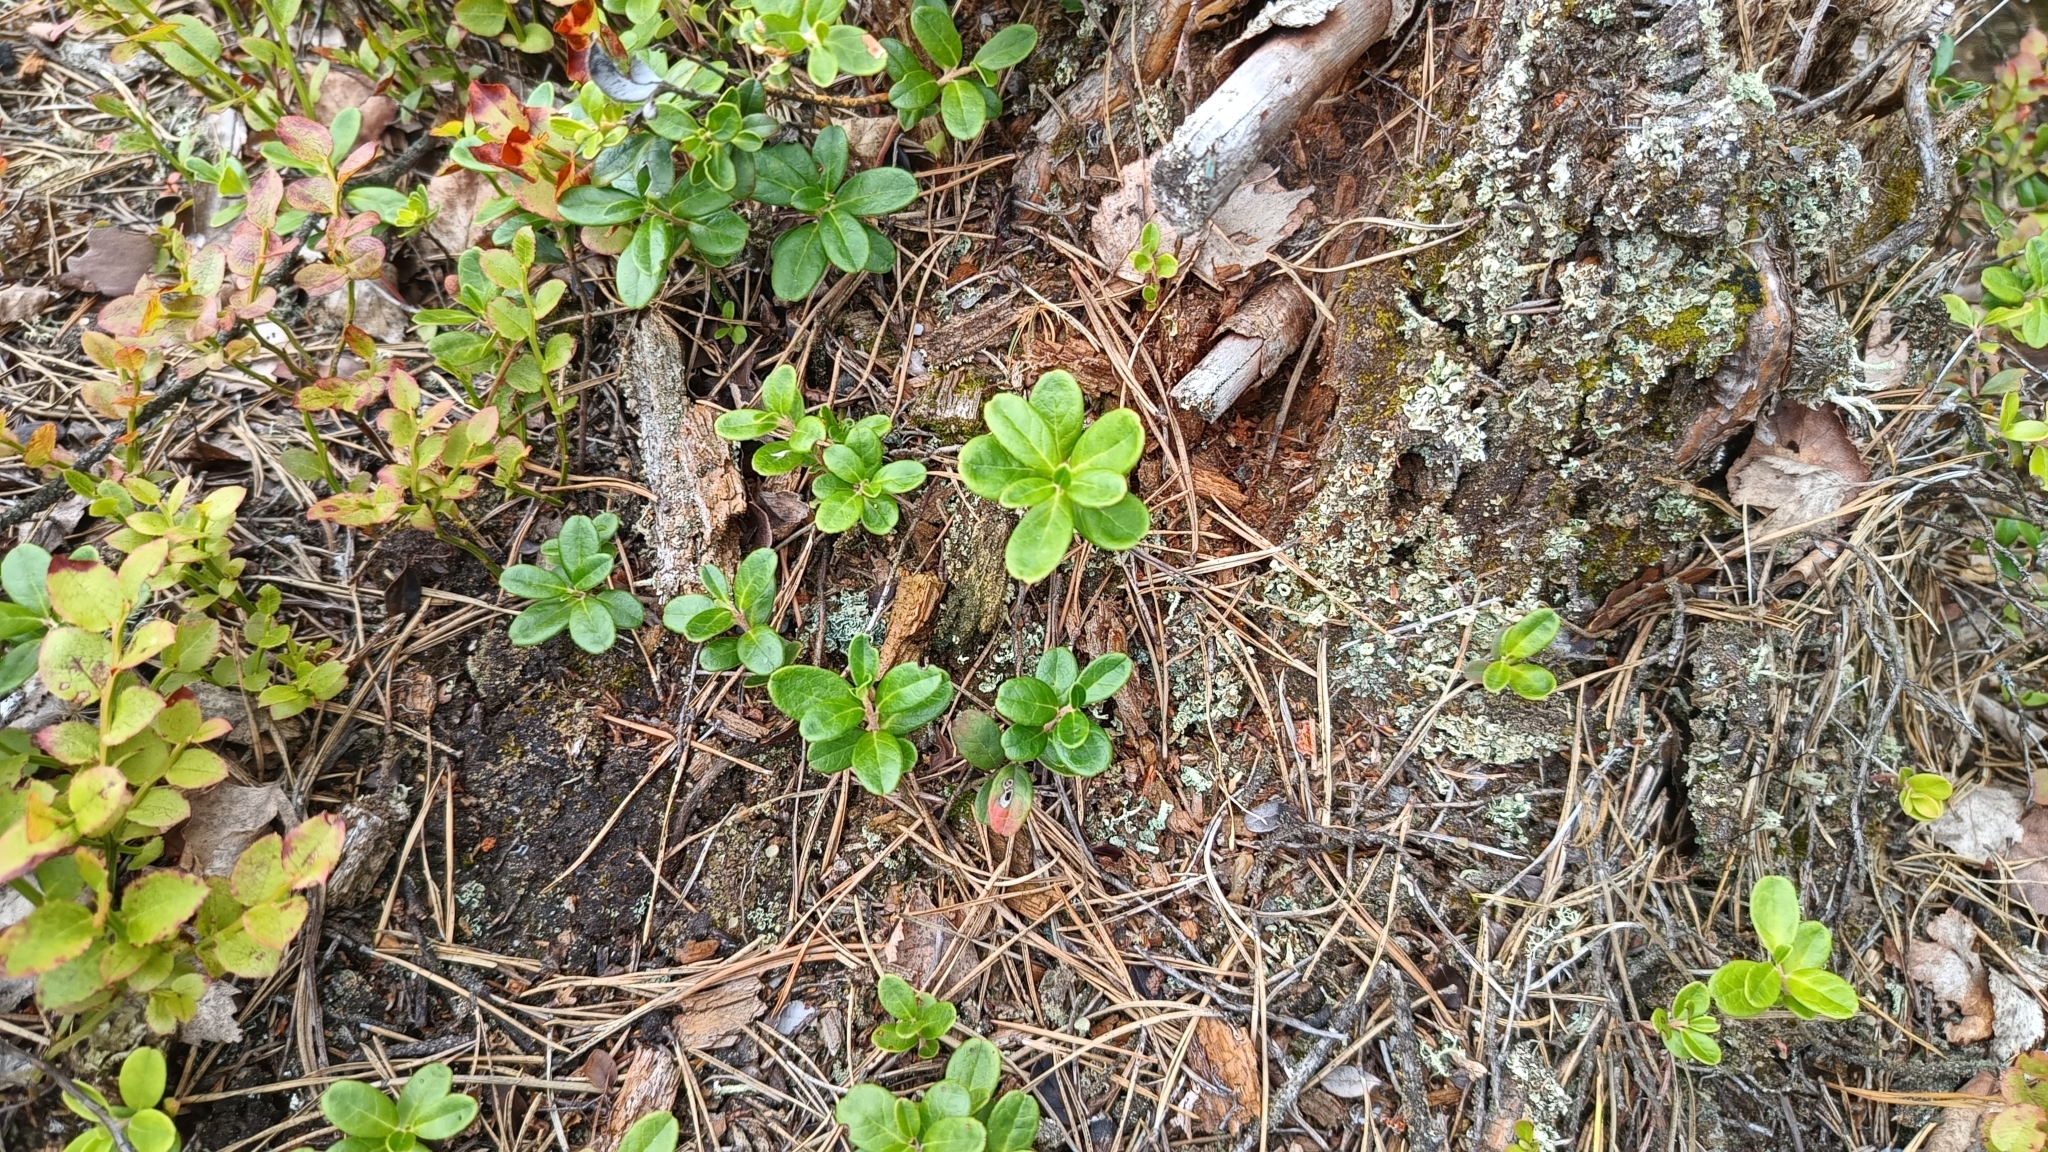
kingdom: Plantae
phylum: Tracheophyta
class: Magnoliopsida
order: Ericales
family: Ericaceae
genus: Vaccinium
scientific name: Vaccinium vitis-idaea
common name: Cowberry
